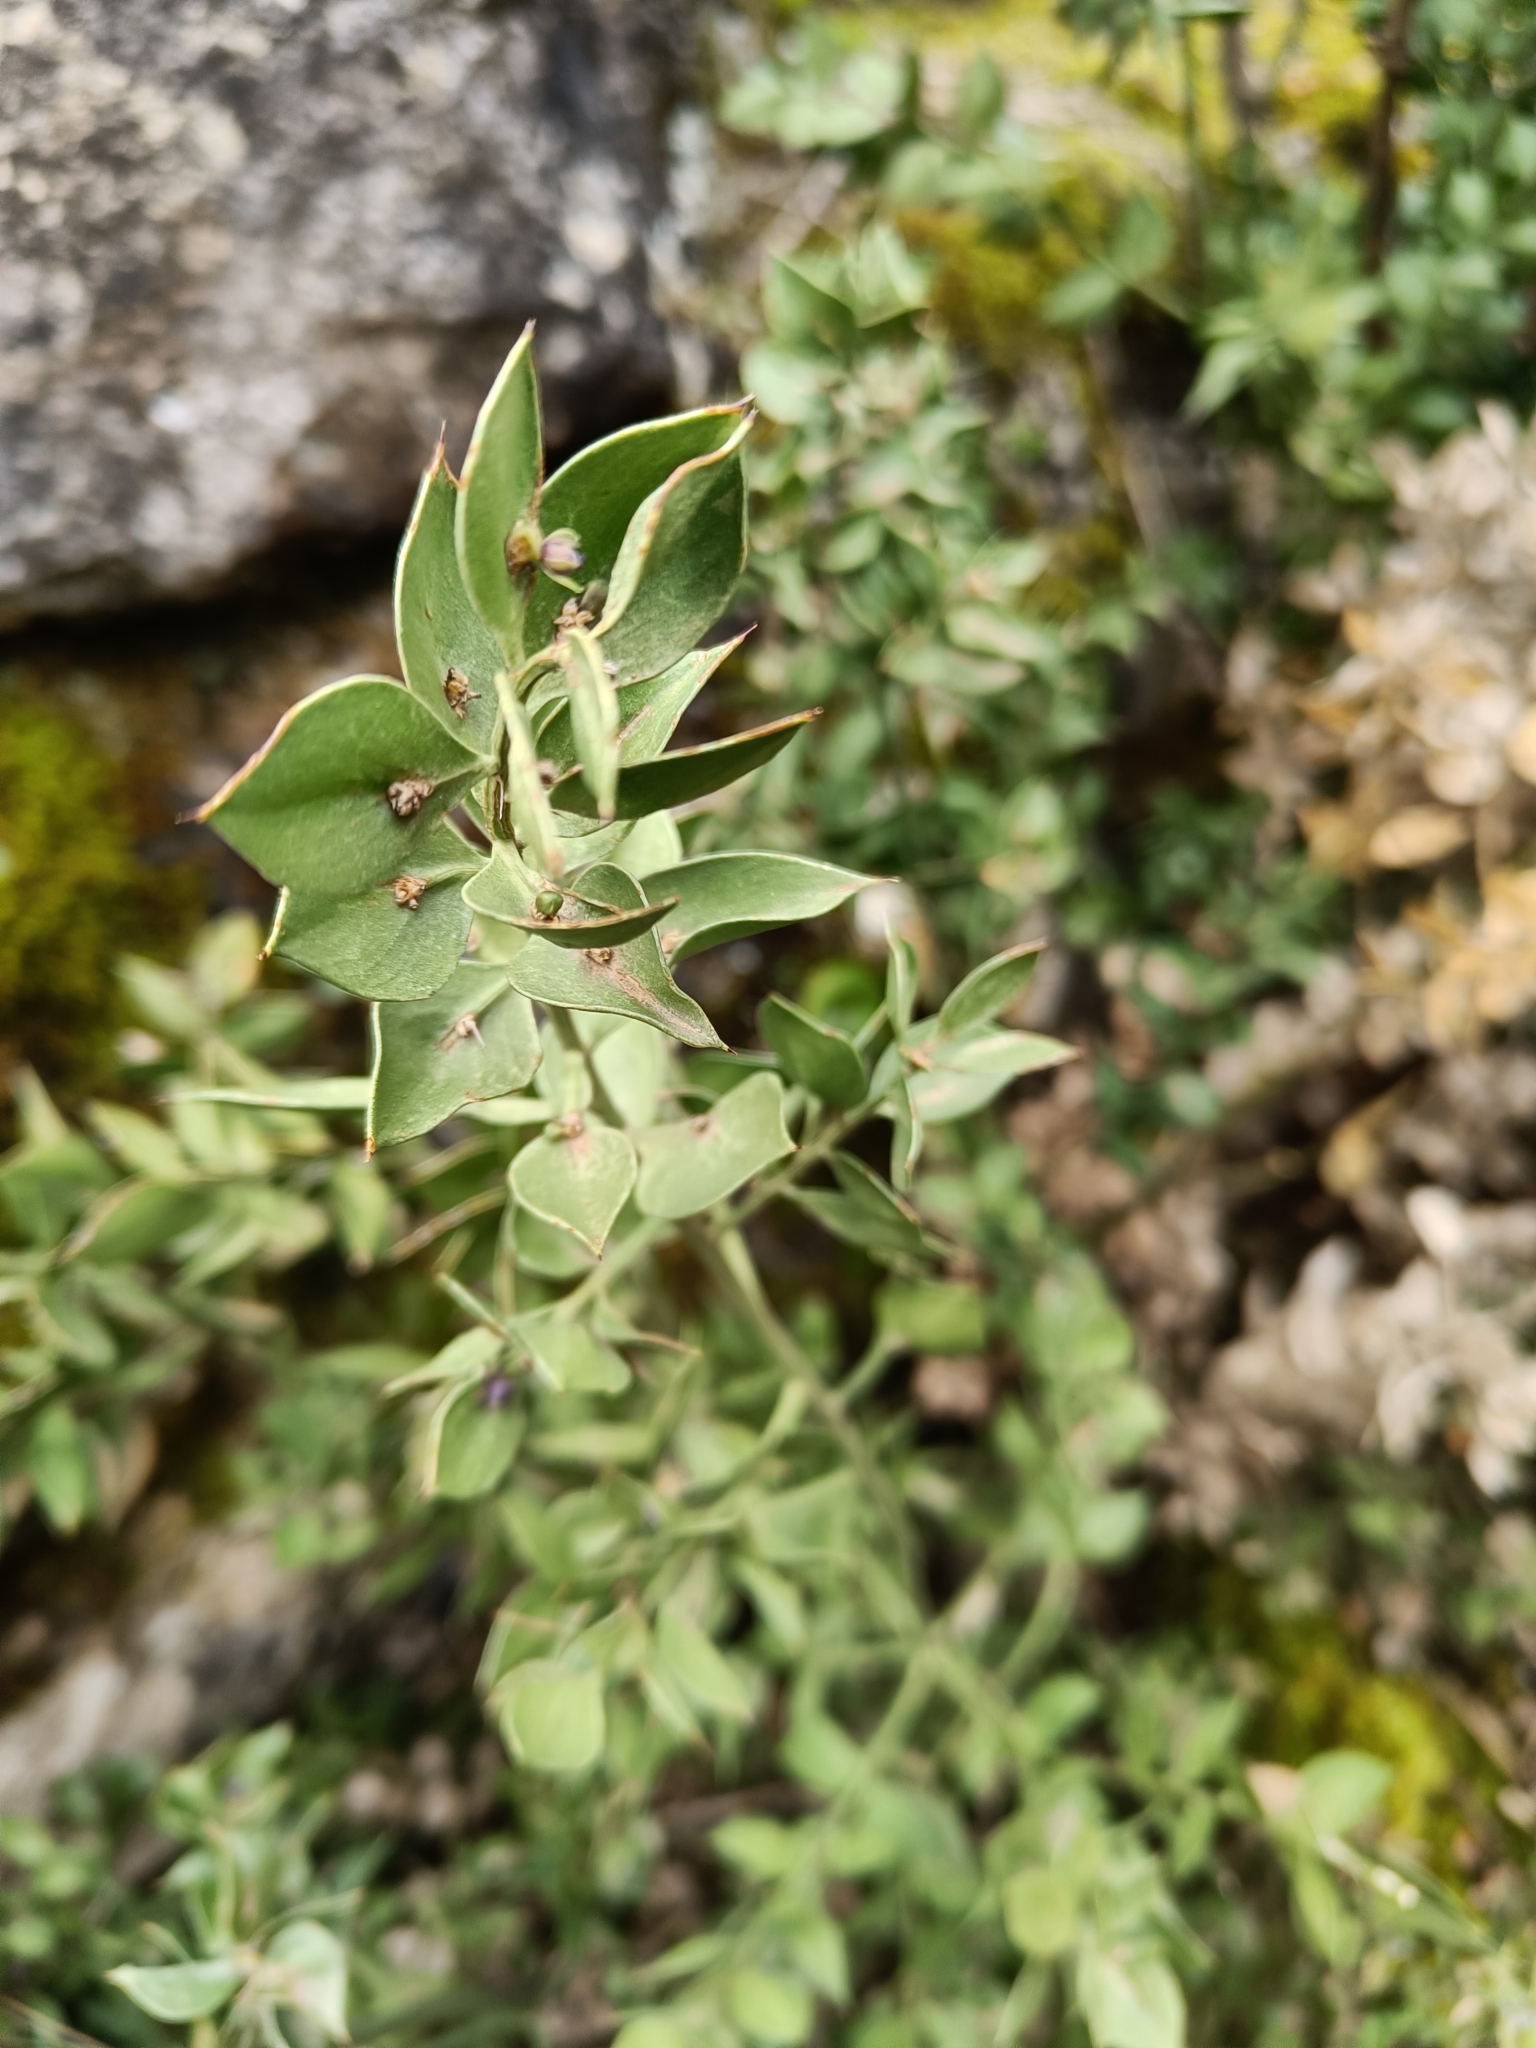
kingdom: Plantae
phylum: Tracheophyta
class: Liliopsida
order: Asparagales
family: Asparagaceae
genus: Ruscus
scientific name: Ruscus aculeatus
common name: Butcher's-broom
